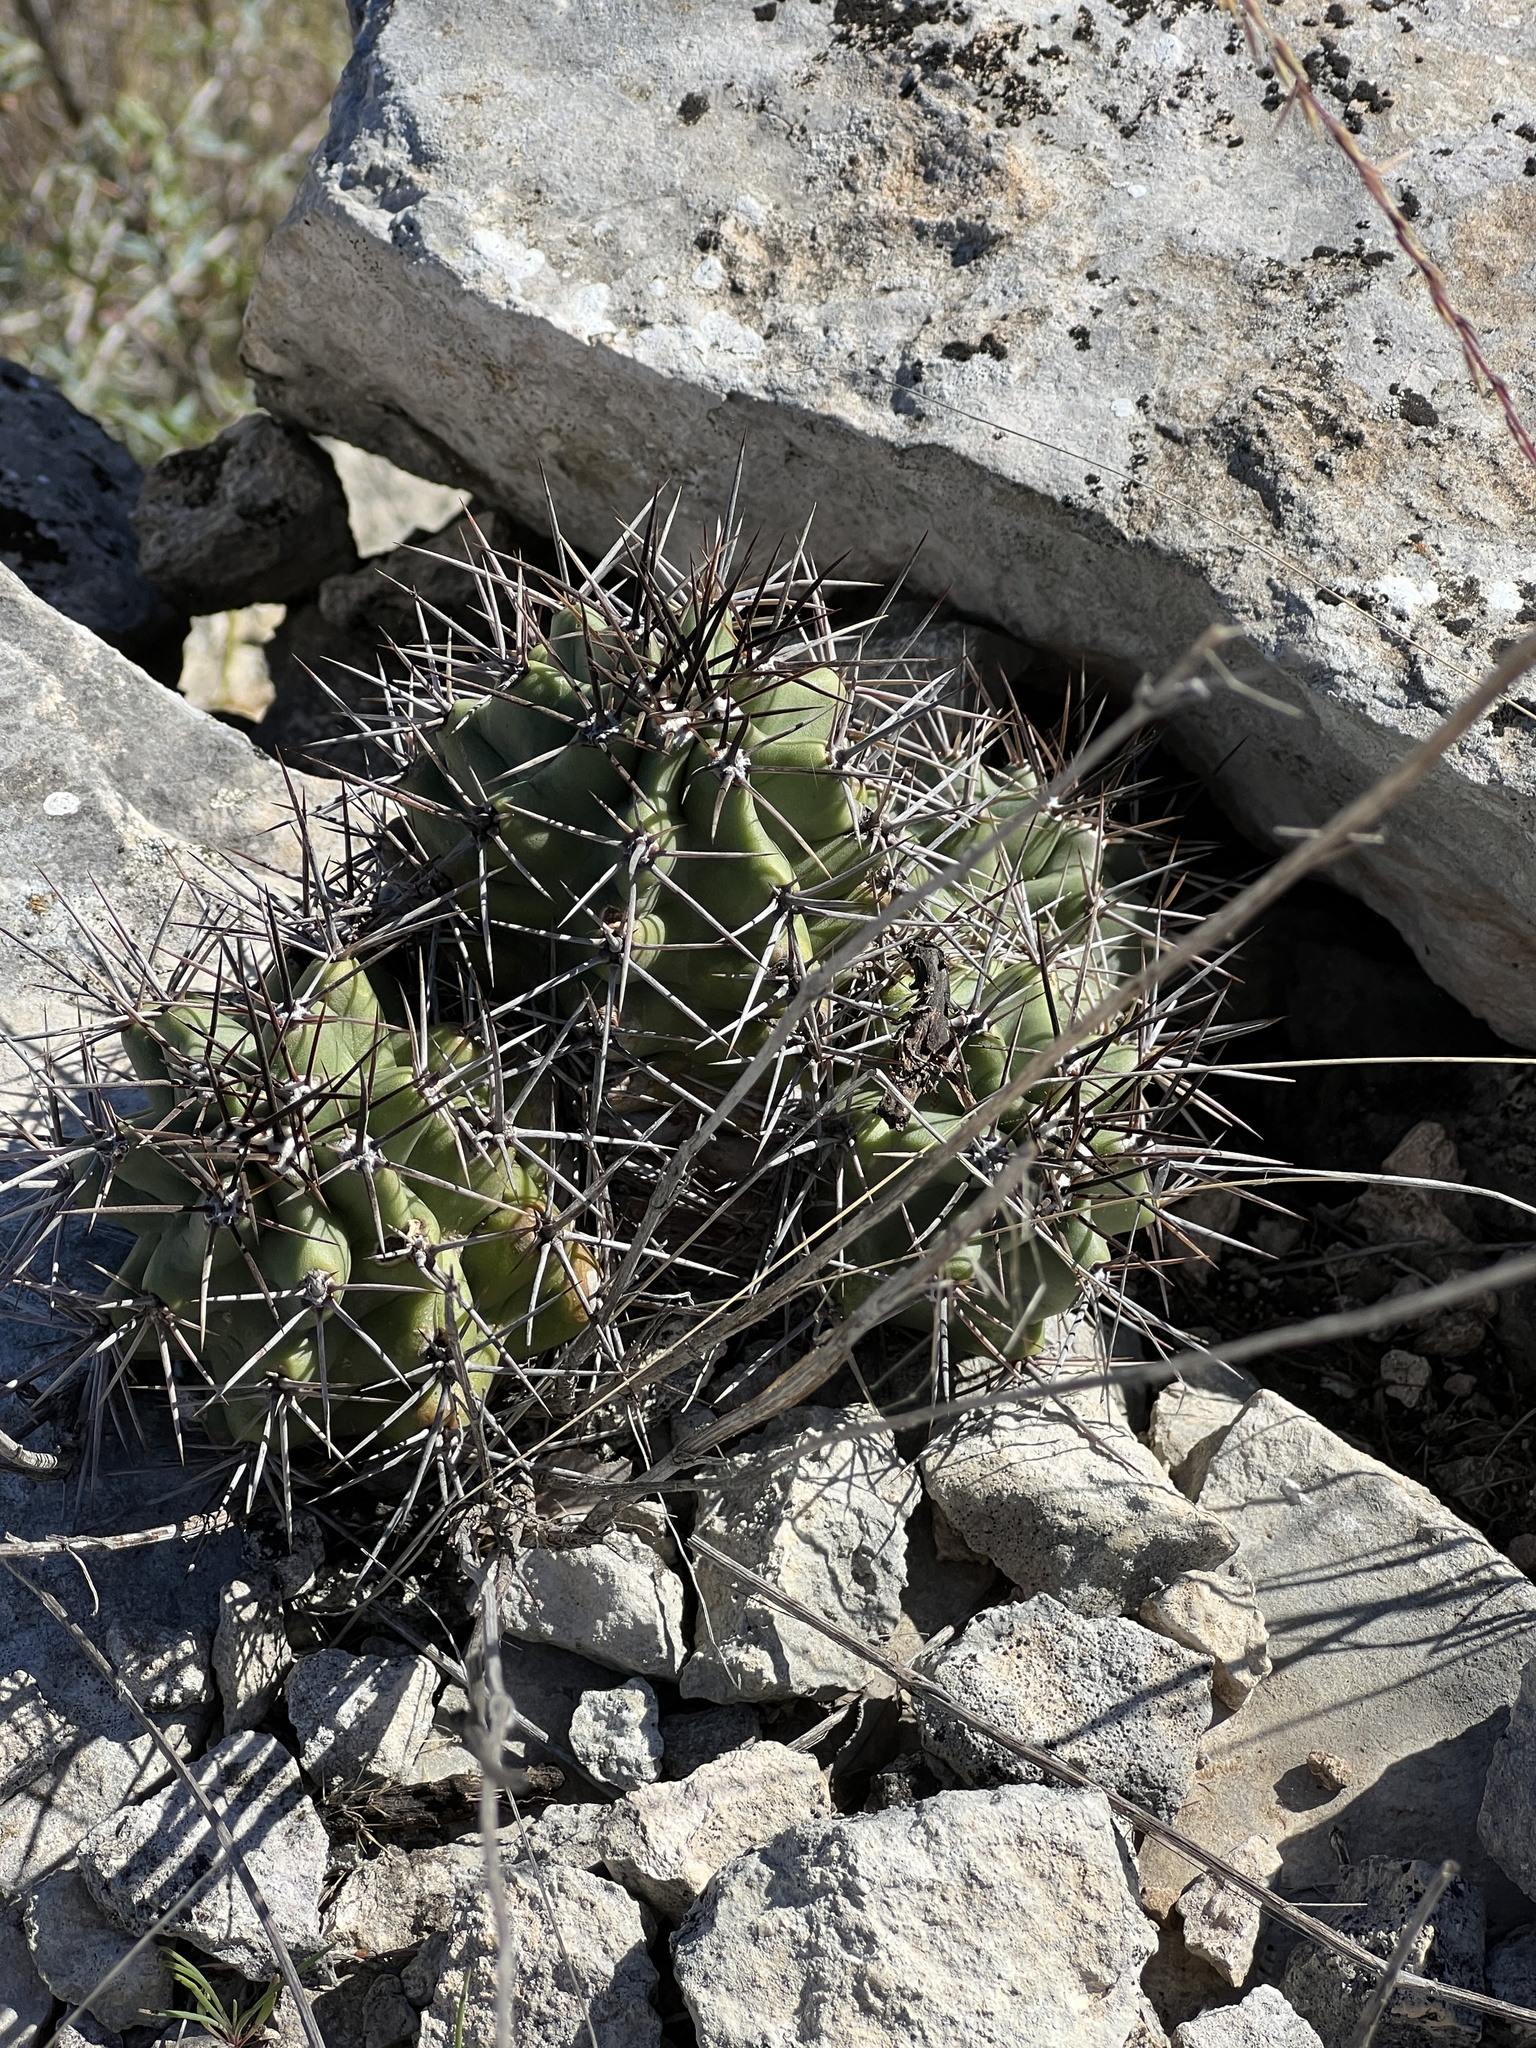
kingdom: Plantae
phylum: Tracheophyta
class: Magnoliopsida
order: Caryophyllales
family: Cactaceae
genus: Echinocereus
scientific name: Echinocereus coccineus
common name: Scarlet hedgehog cactus
